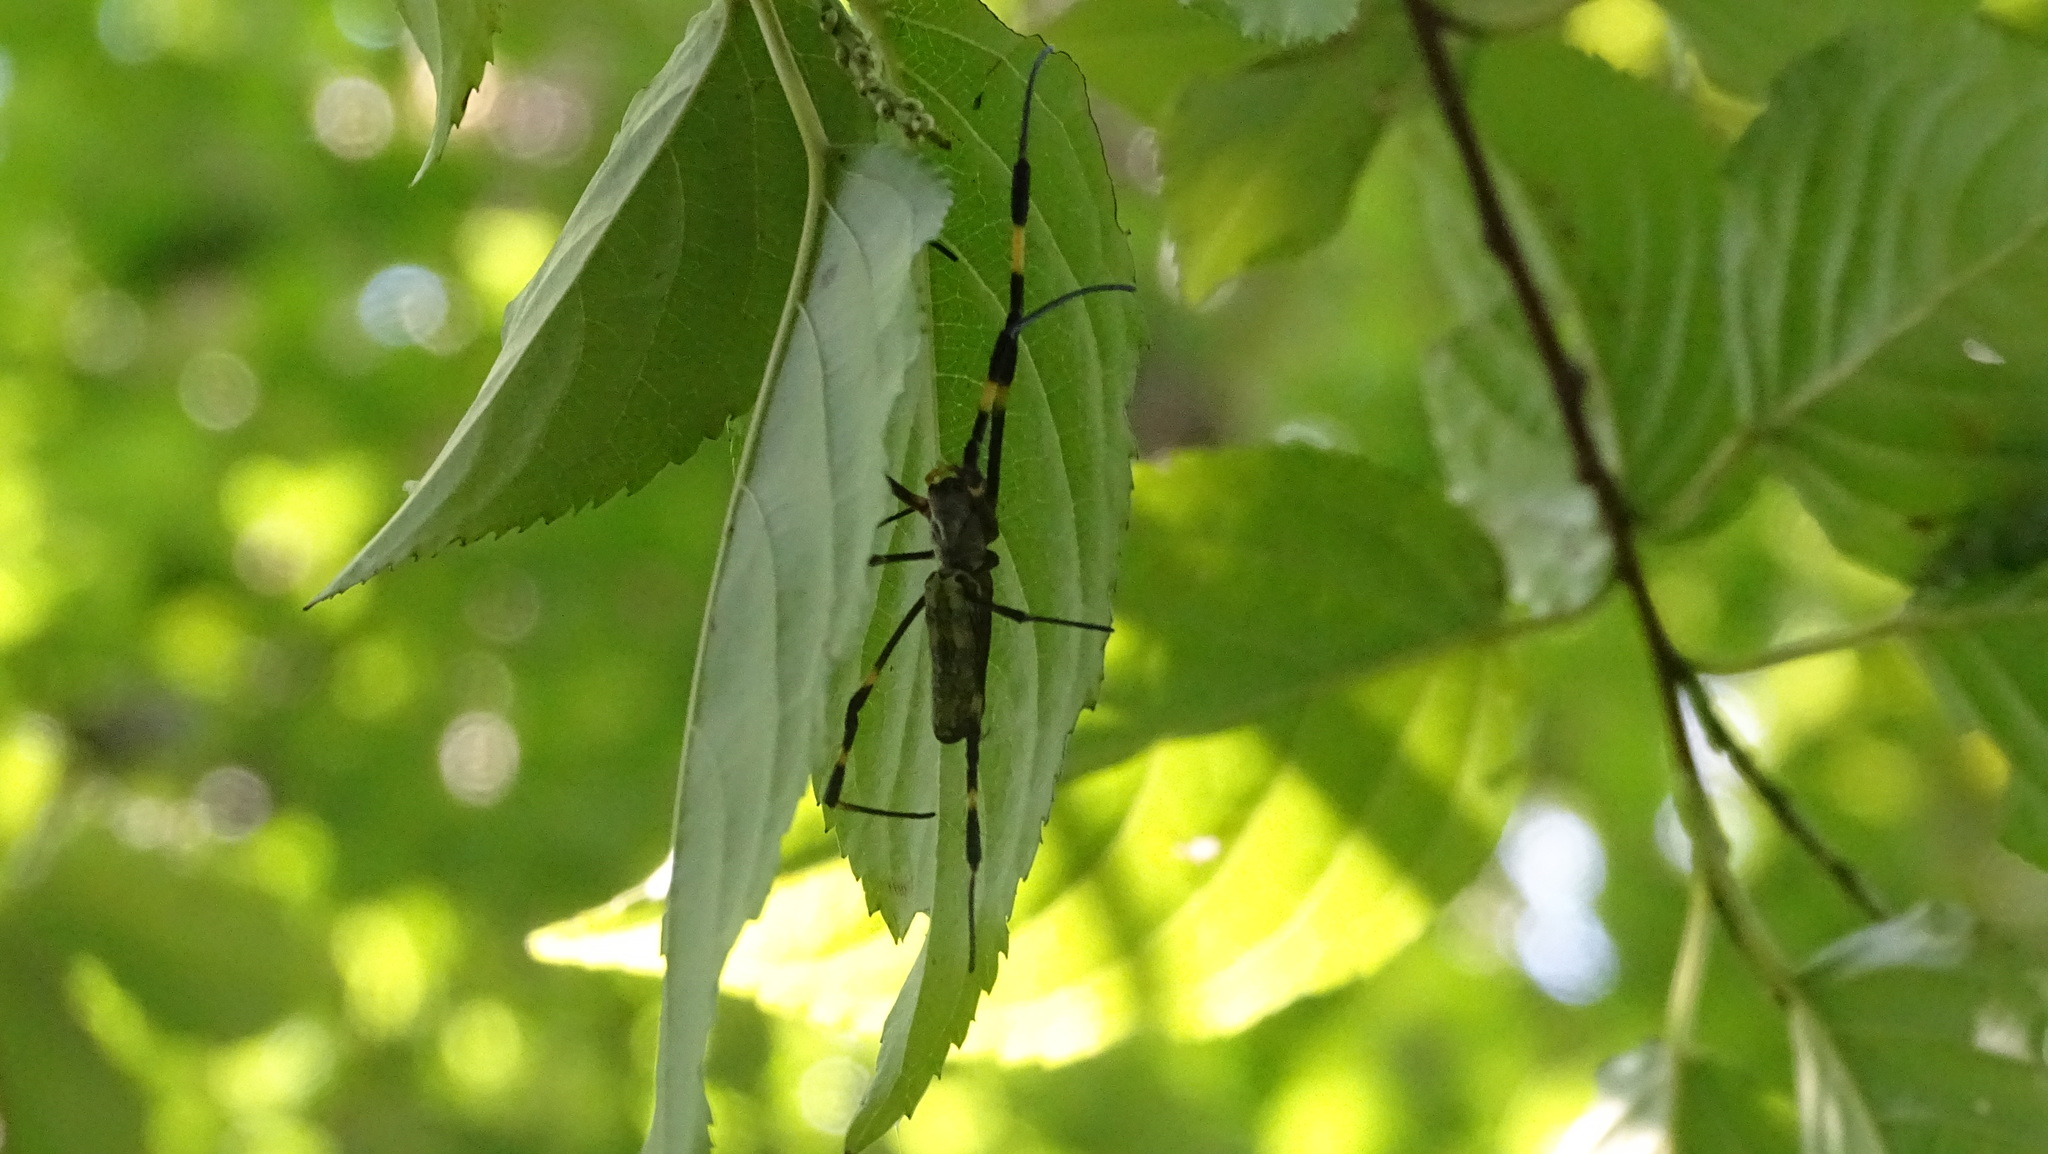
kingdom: Animalia
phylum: Arthropoda
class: Arachnida
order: Araneae
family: Araneidae
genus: Trichonephila
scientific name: Trichonephila clavata
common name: Jorō spider
